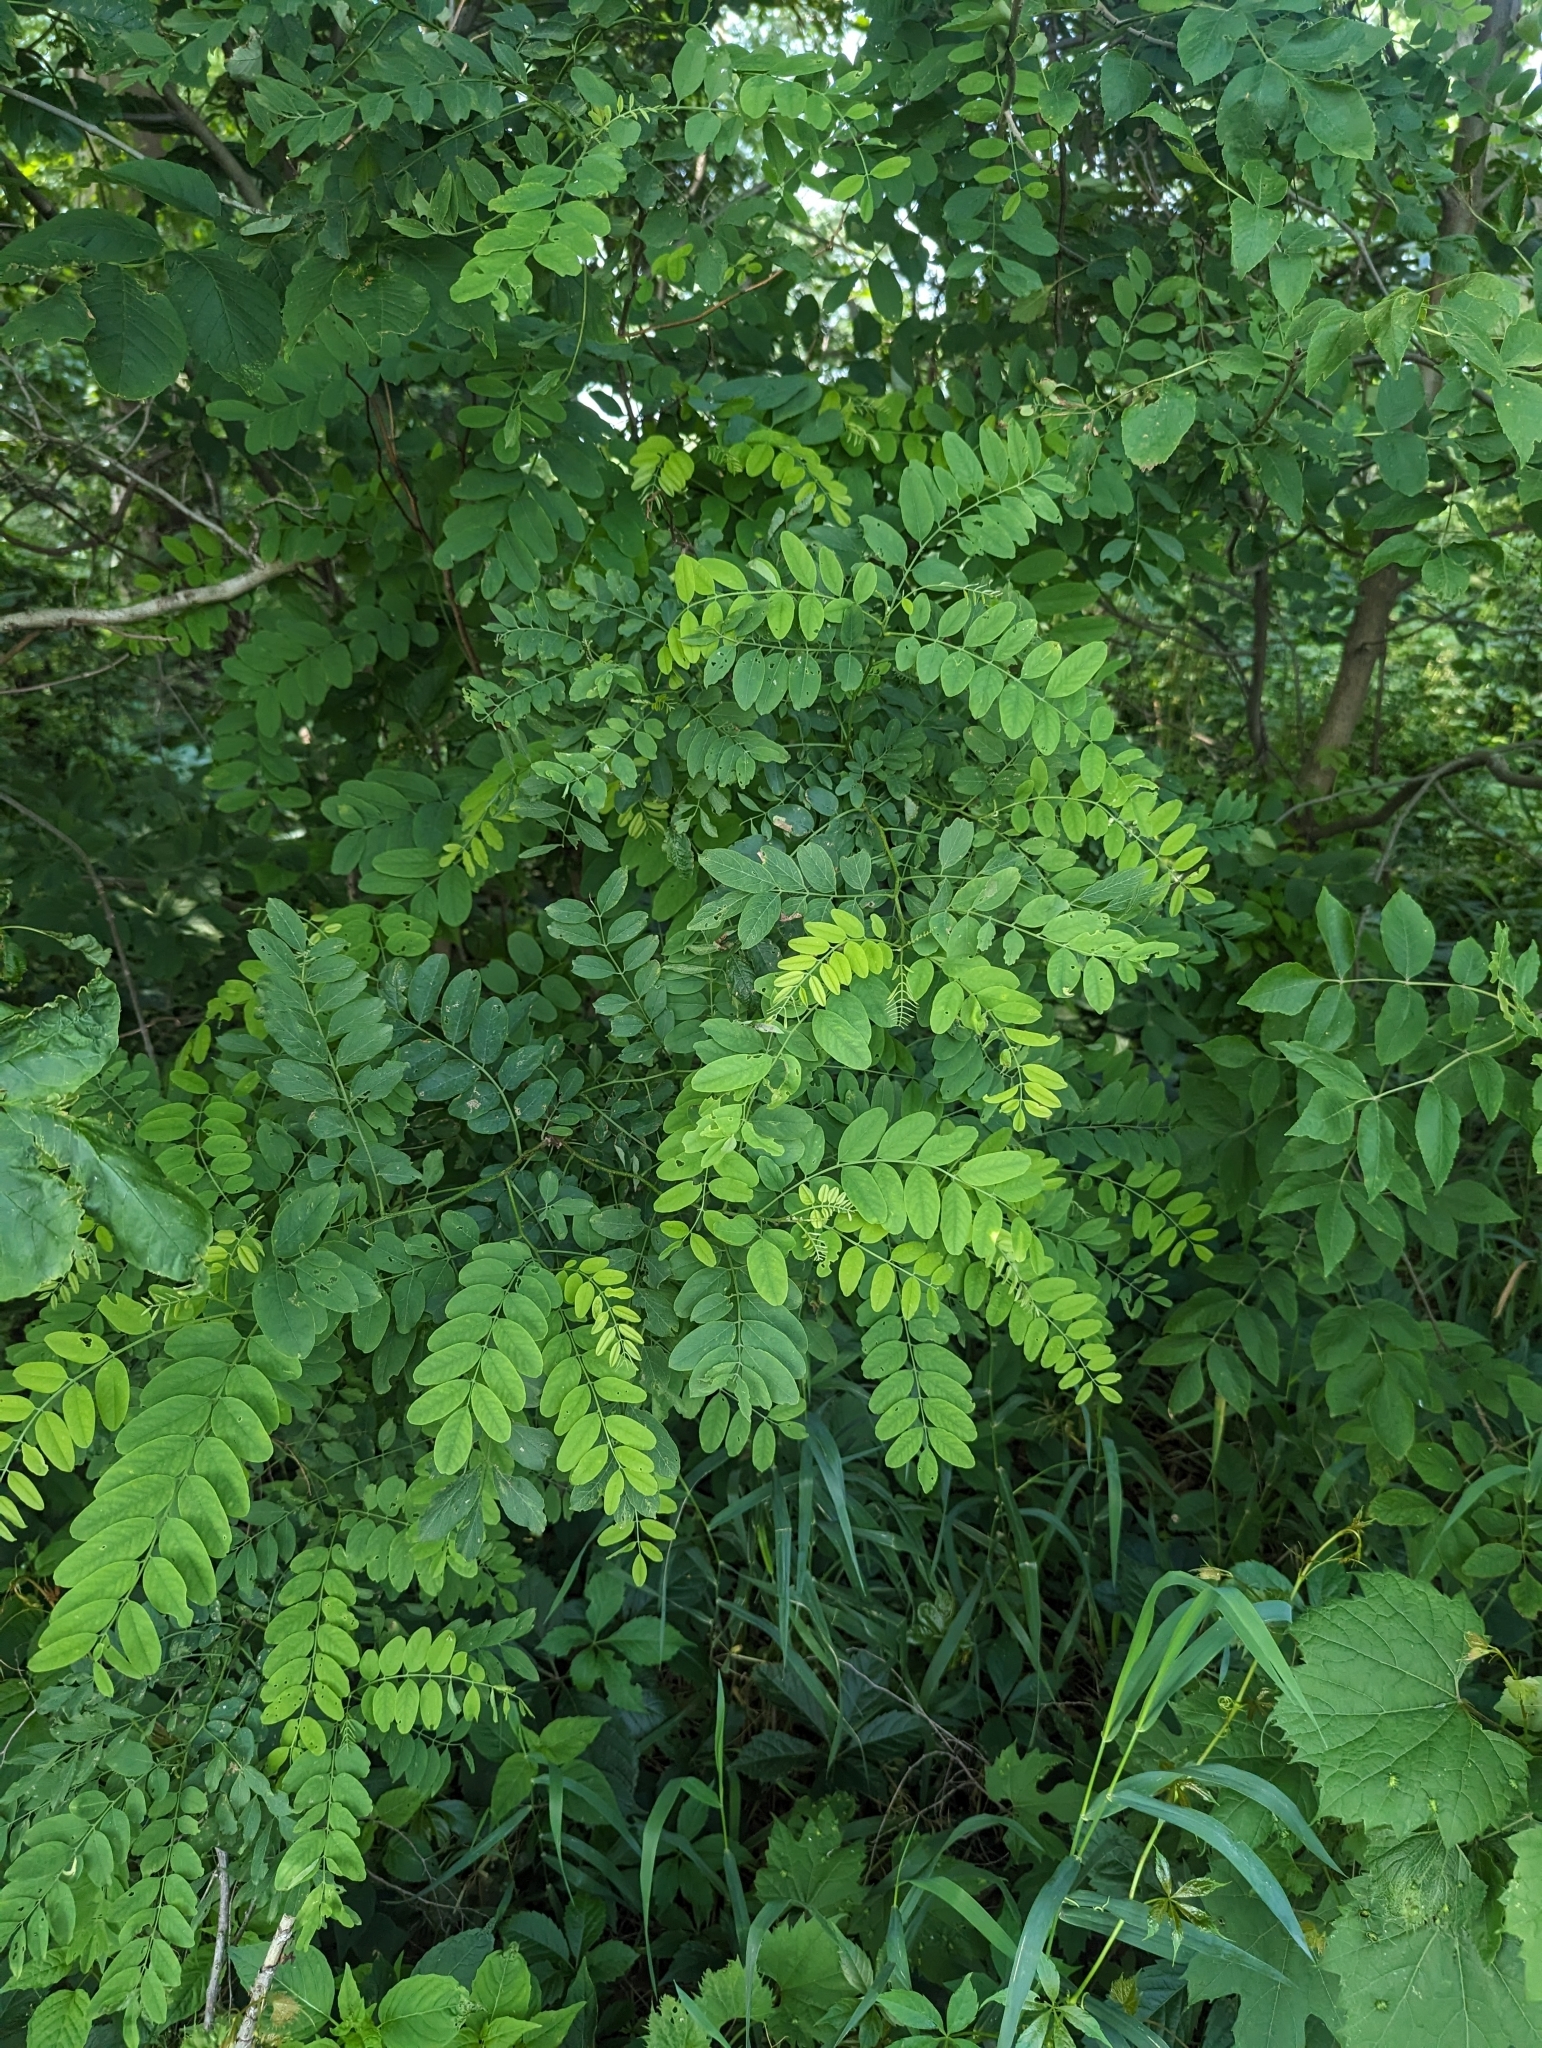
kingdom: Plantae
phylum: Tracheophyta
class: Magnoliopsida
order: Fabales
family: Fabaceae
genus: Robinia
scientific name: Robinia pseudoacacia
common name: Black locust
